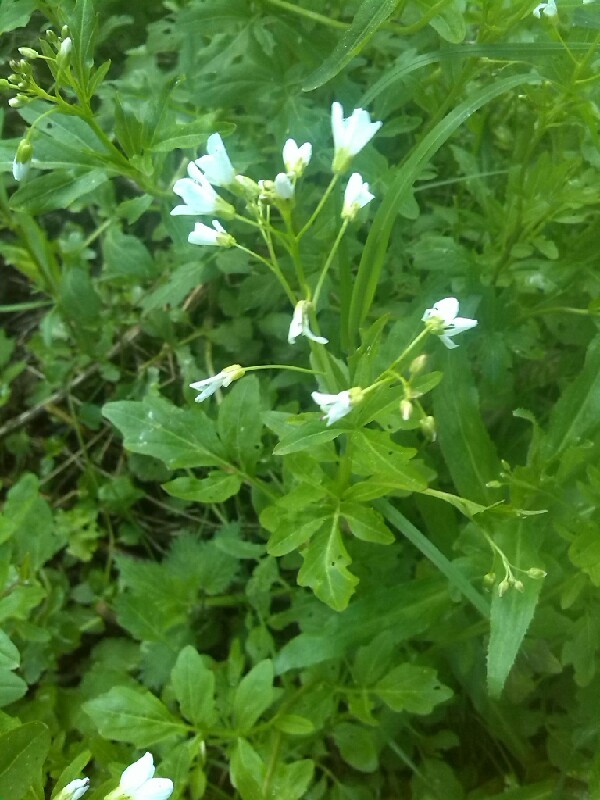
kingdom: Plantae
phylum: Tracheophyta
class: Magnoliopsida
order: Brassicales
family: Brassicaceae
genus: Cardamine
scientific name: Cardamine amara
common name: Large bitter-cress
